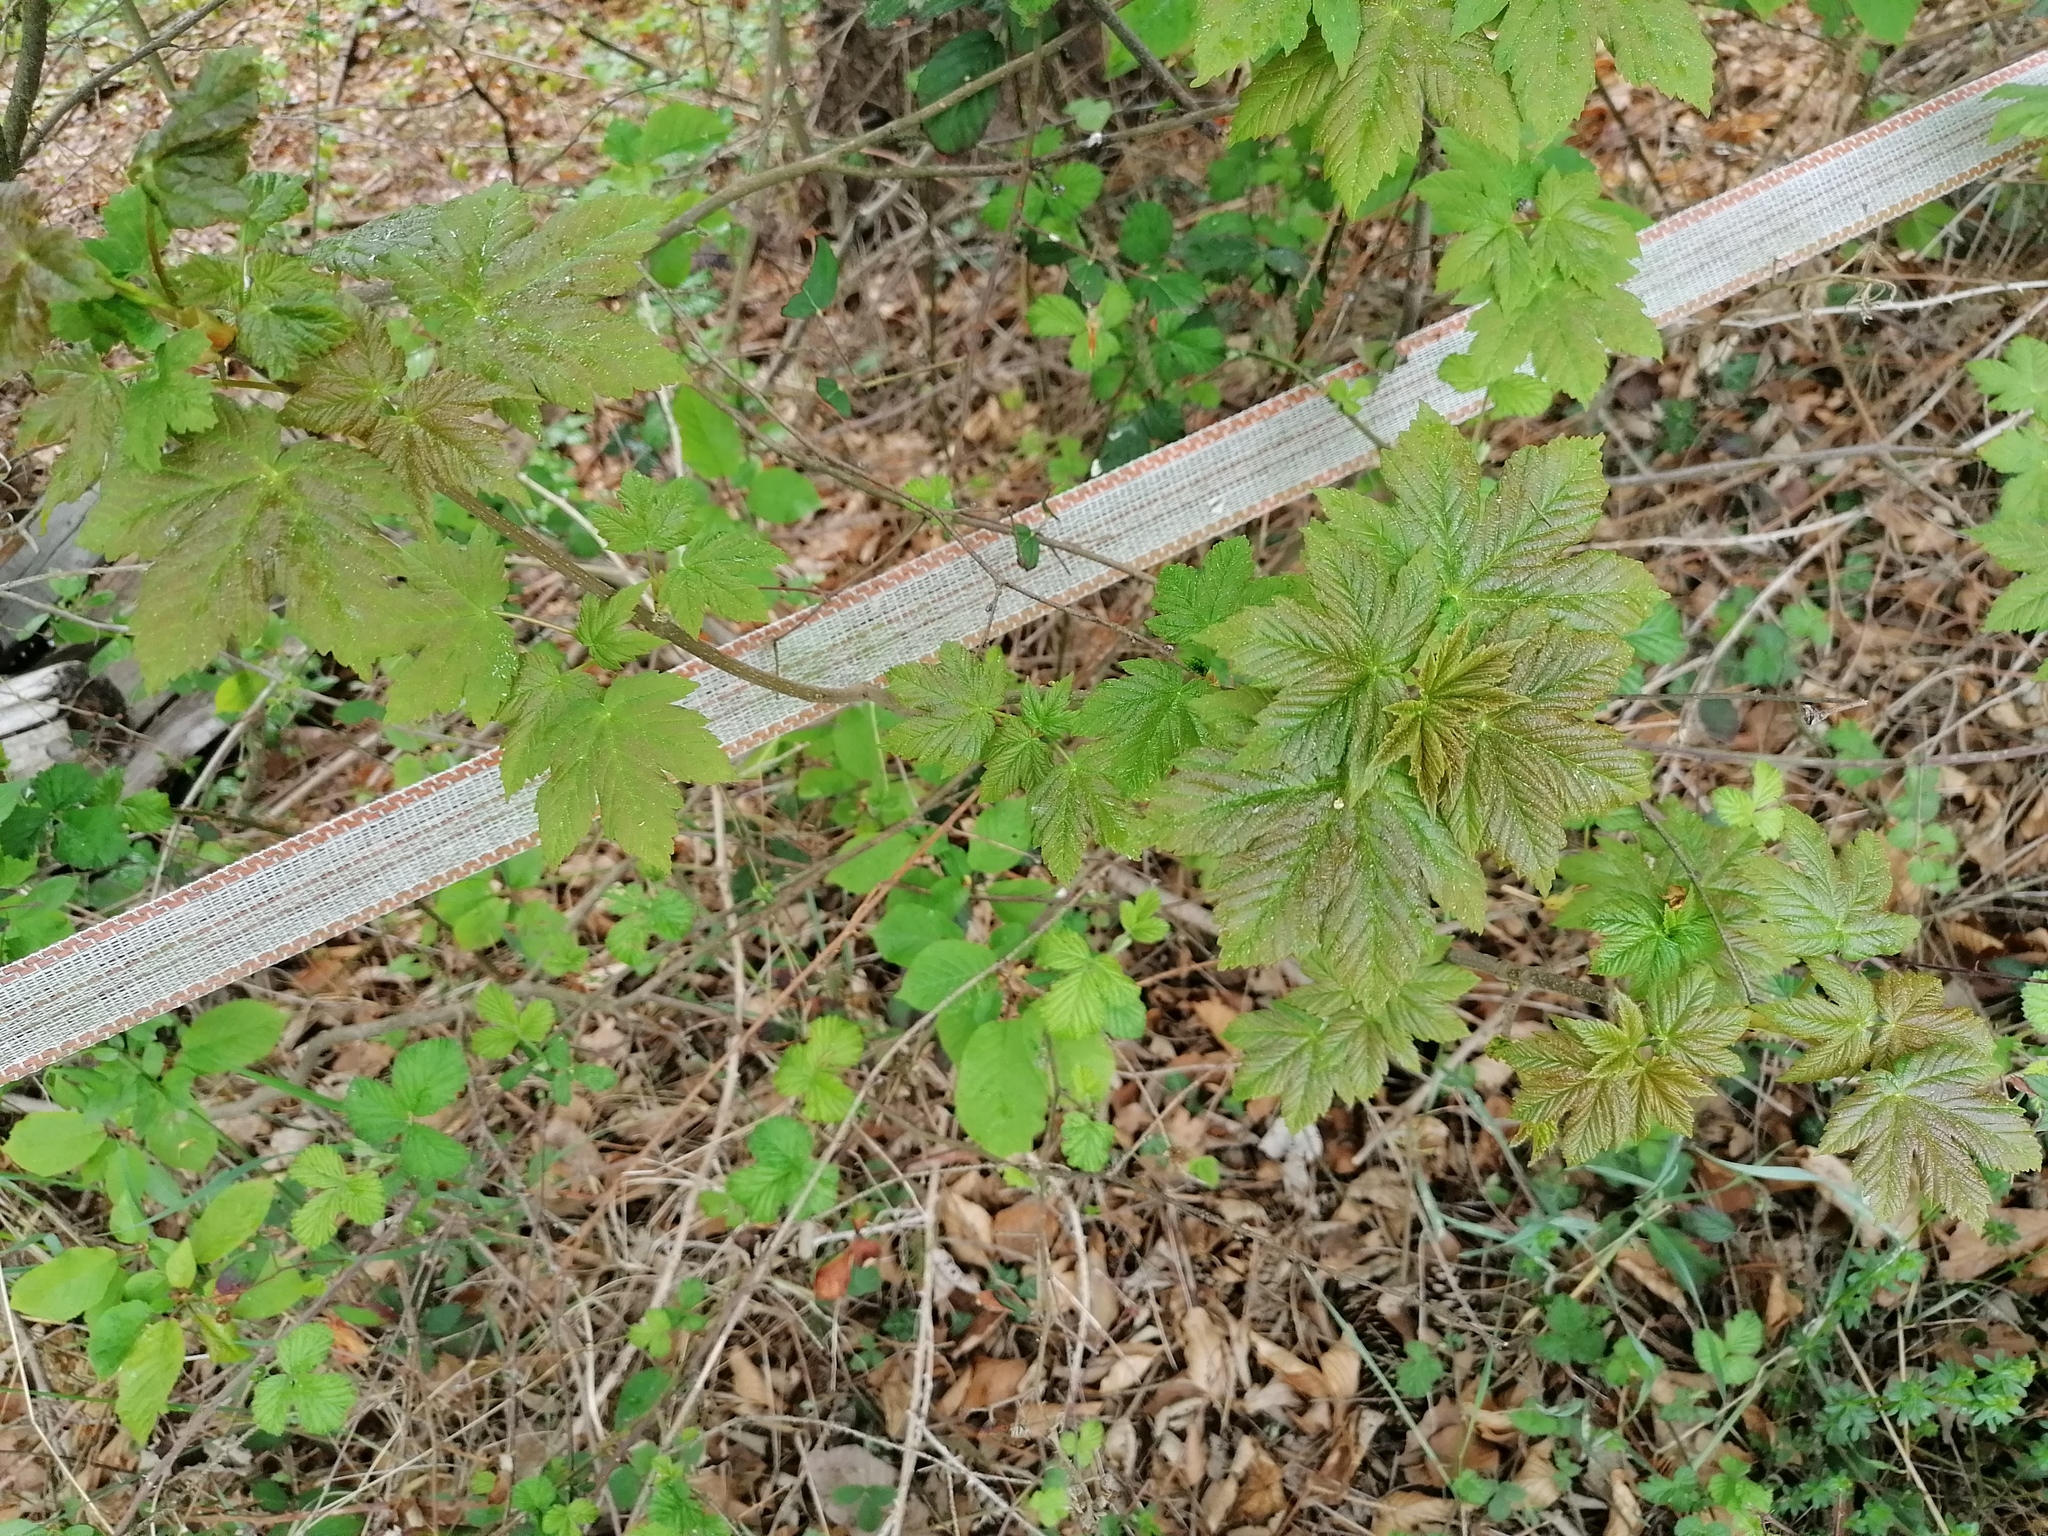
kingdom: Plantae
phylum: Tracheophyta
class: Magnoliopsida
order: Sapindales
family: Sapindaceae
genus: Acer
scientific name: Acer pseudoplatanus
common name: Sycamore
